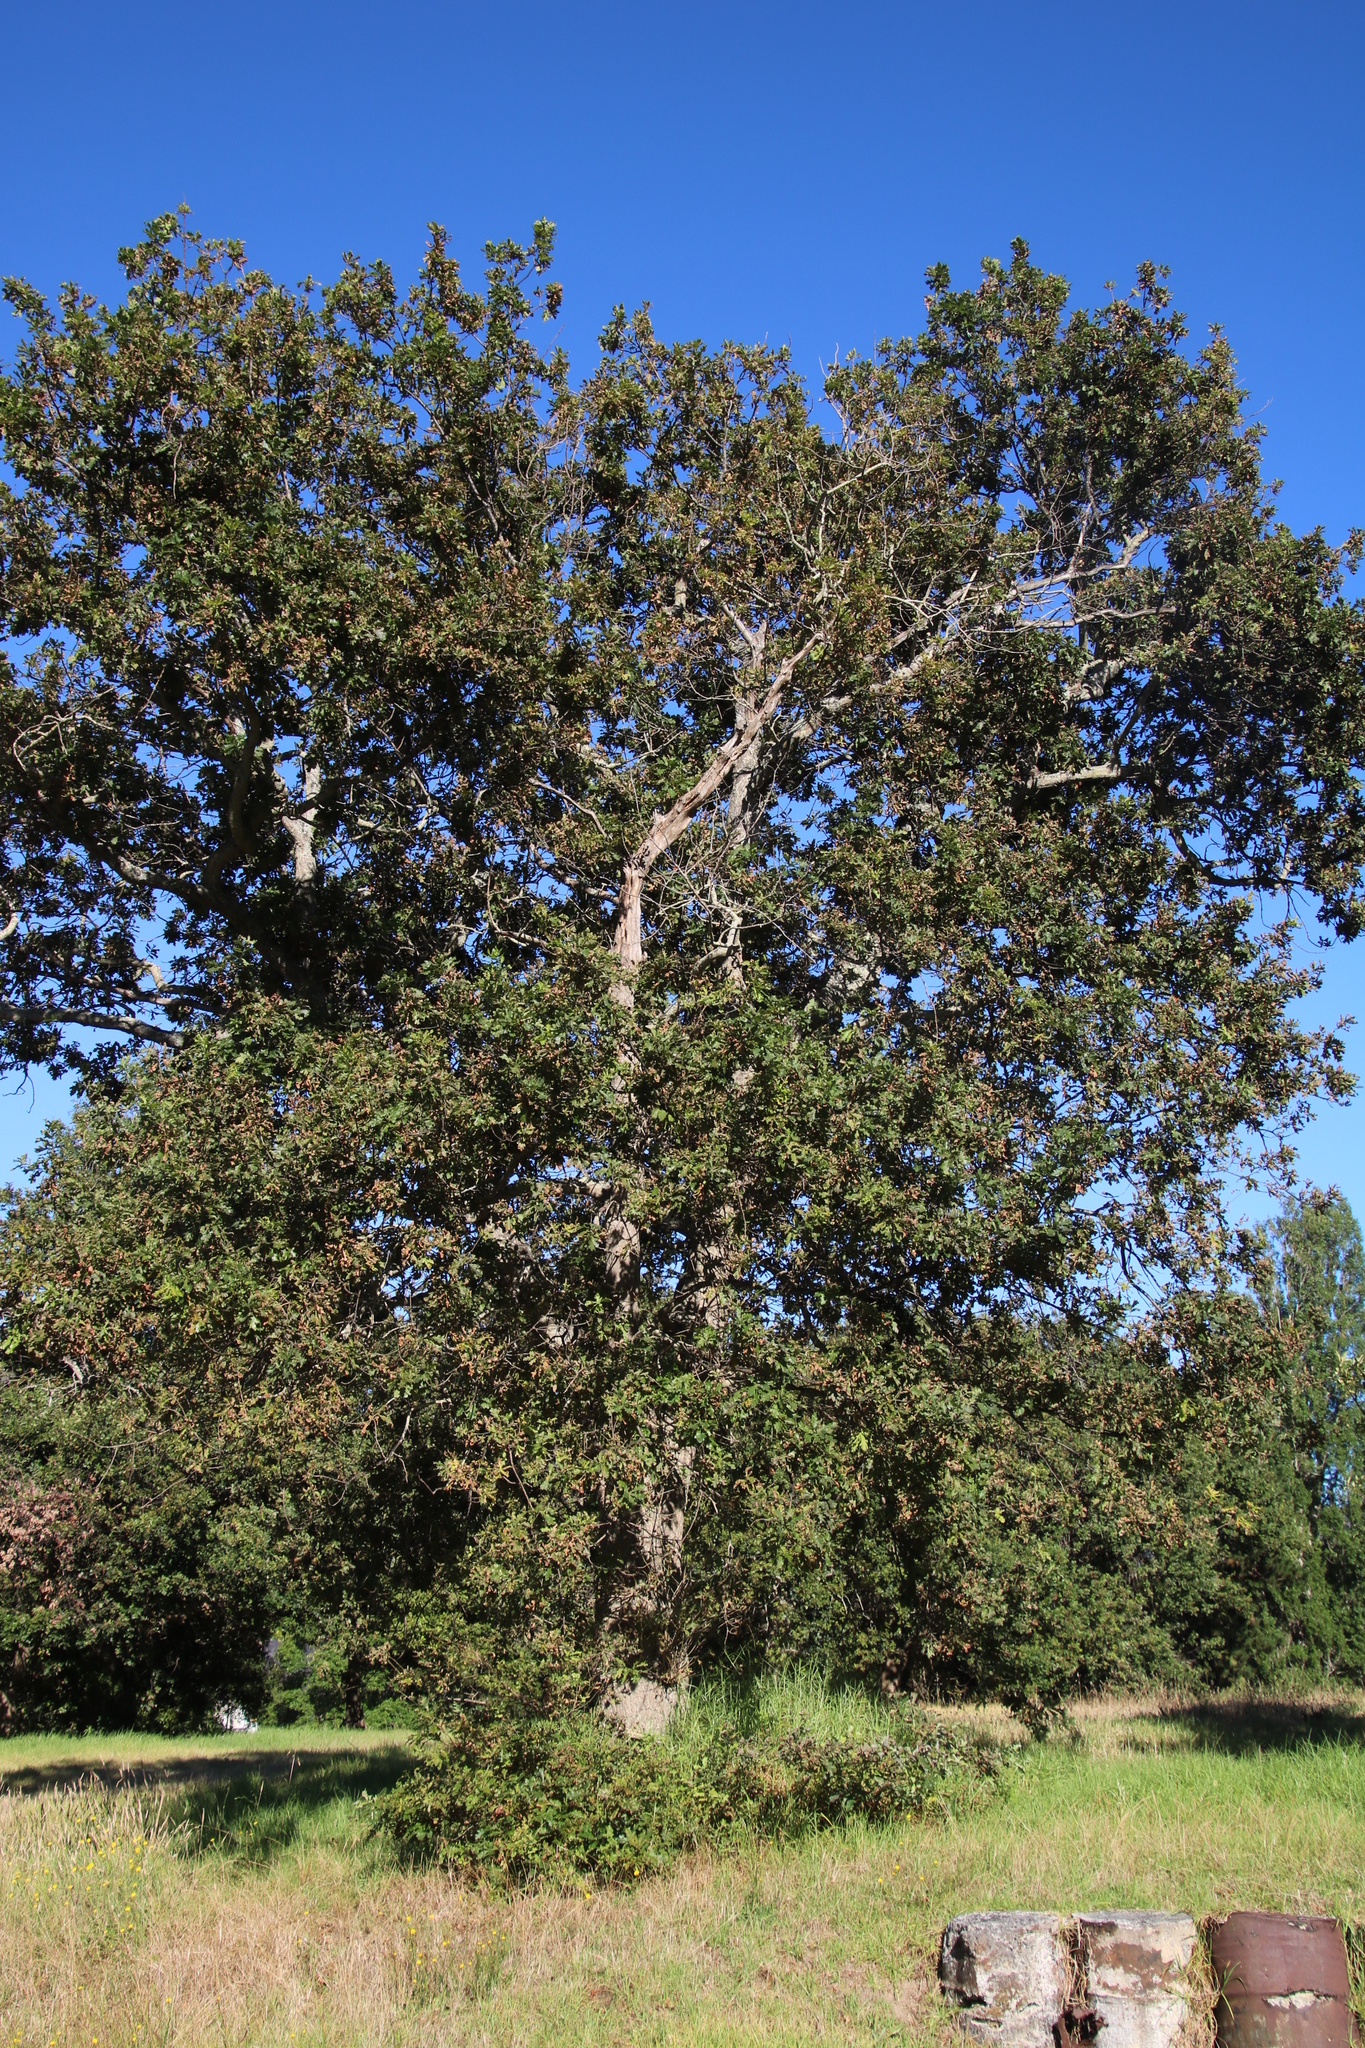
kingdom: Plantae
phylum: Tracheophyta
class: Magnoliopsida
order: Fagales
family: Fagaceae
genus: Quercus
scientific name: Quercus robur
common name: Pedunculate oak
